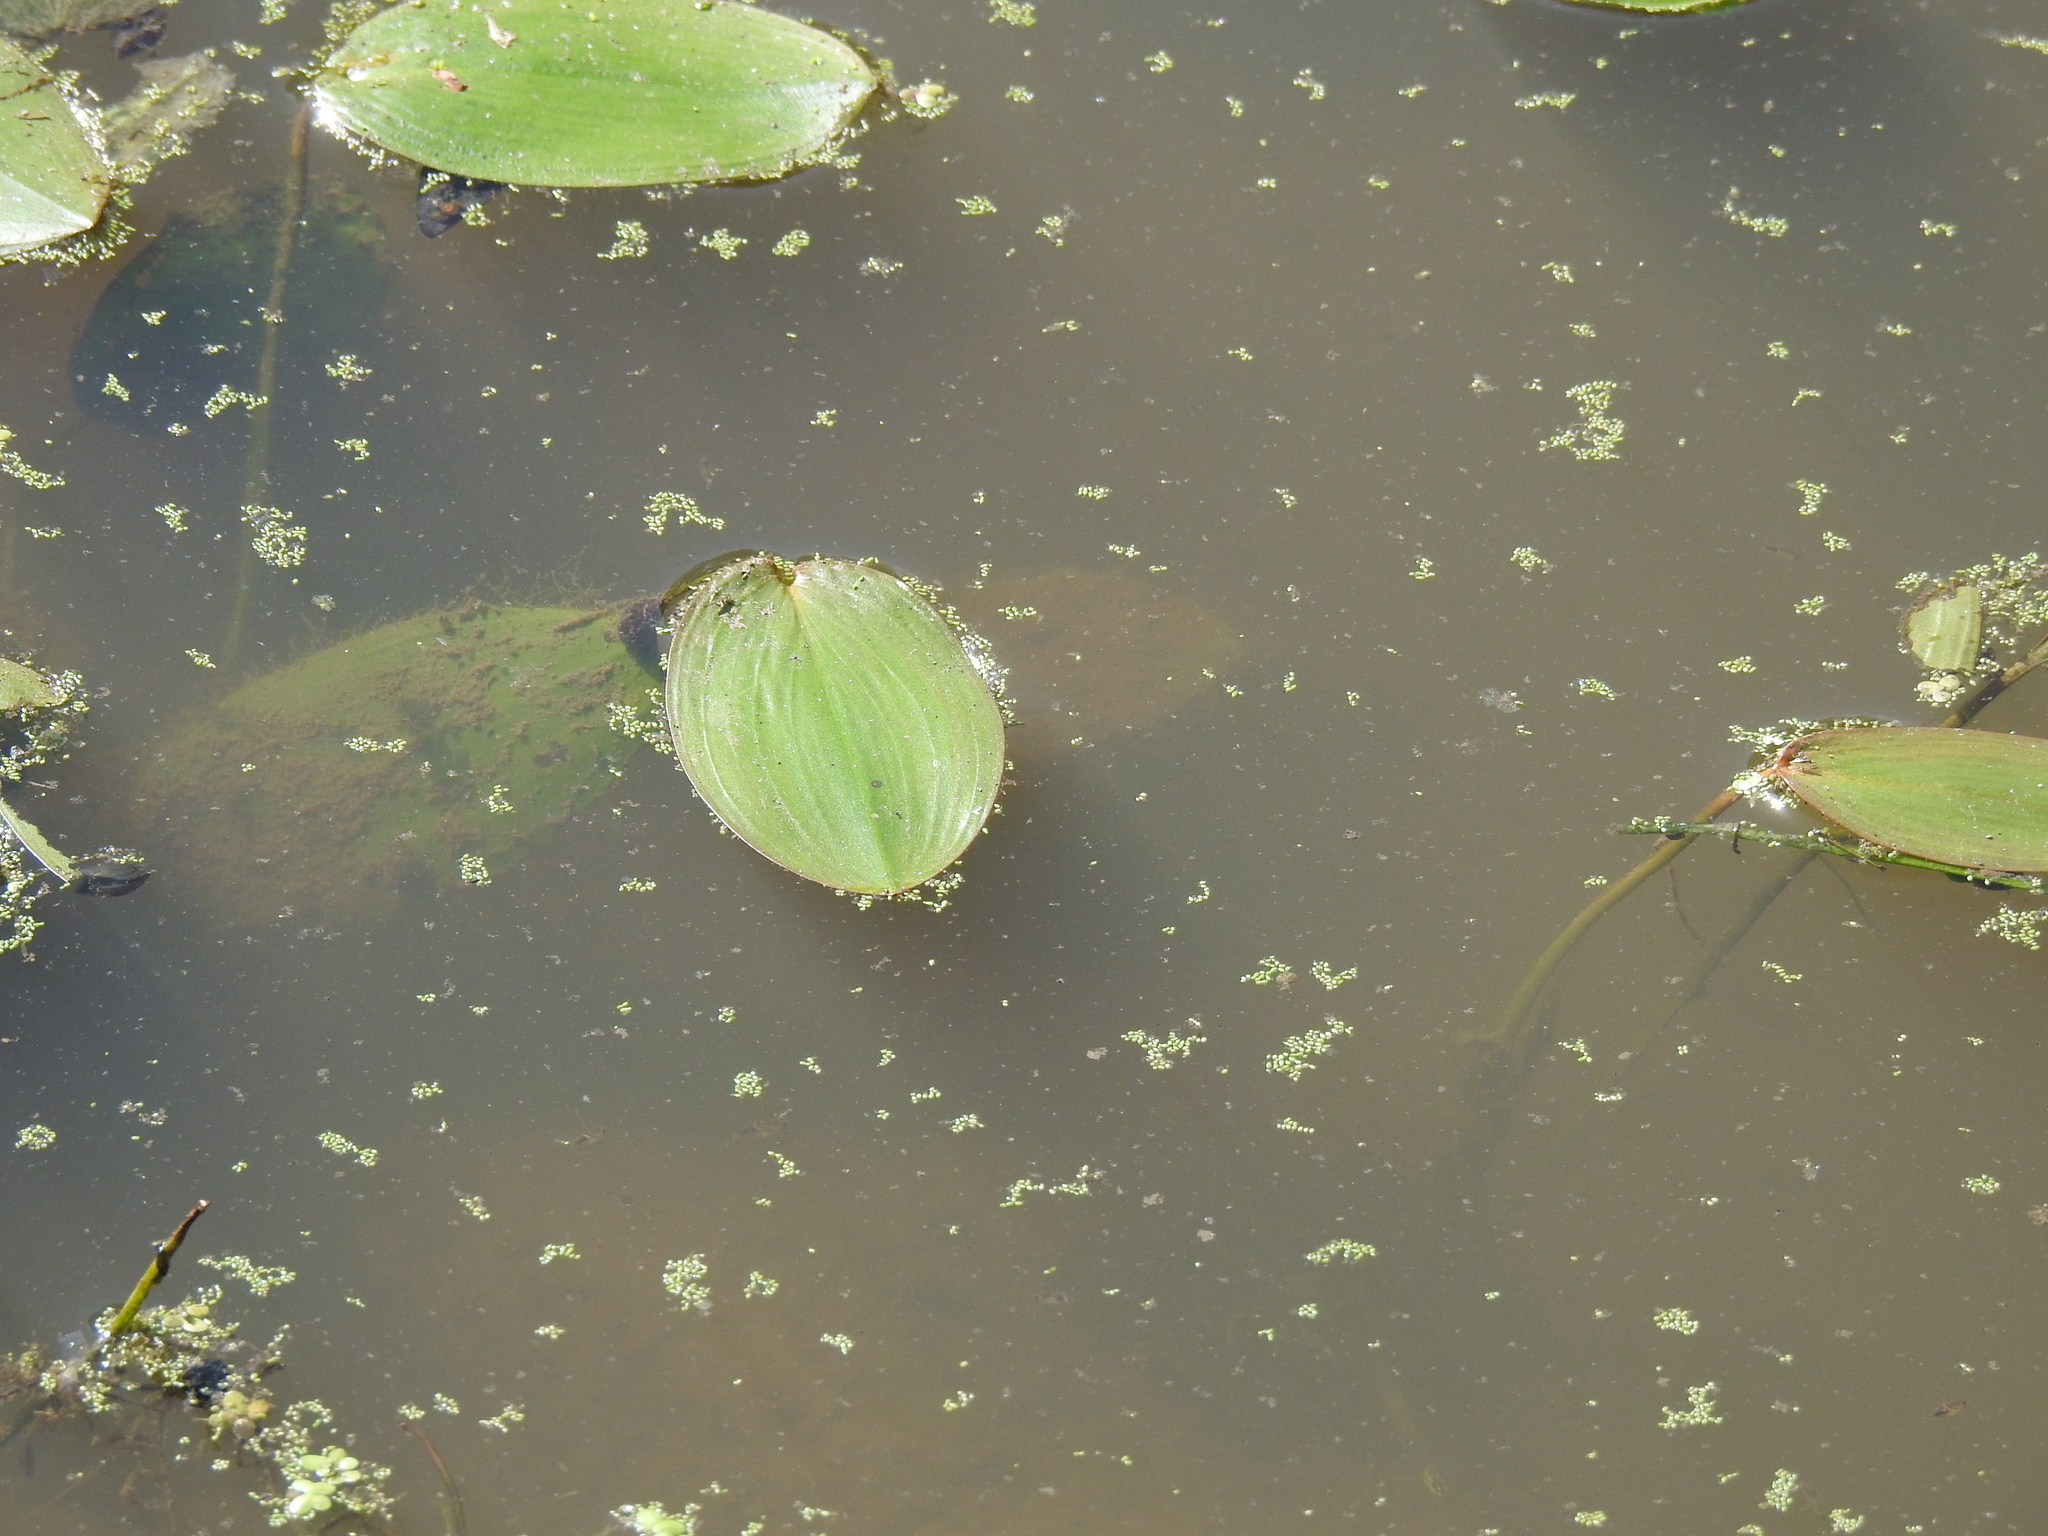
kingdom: Plantae
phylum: Tracheophyta
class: Liliopsida
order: Alismatales
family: Potamogetonaceae
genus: Potamogeton
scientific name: Potamogeton natans
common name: Broad-leaved pondweed
